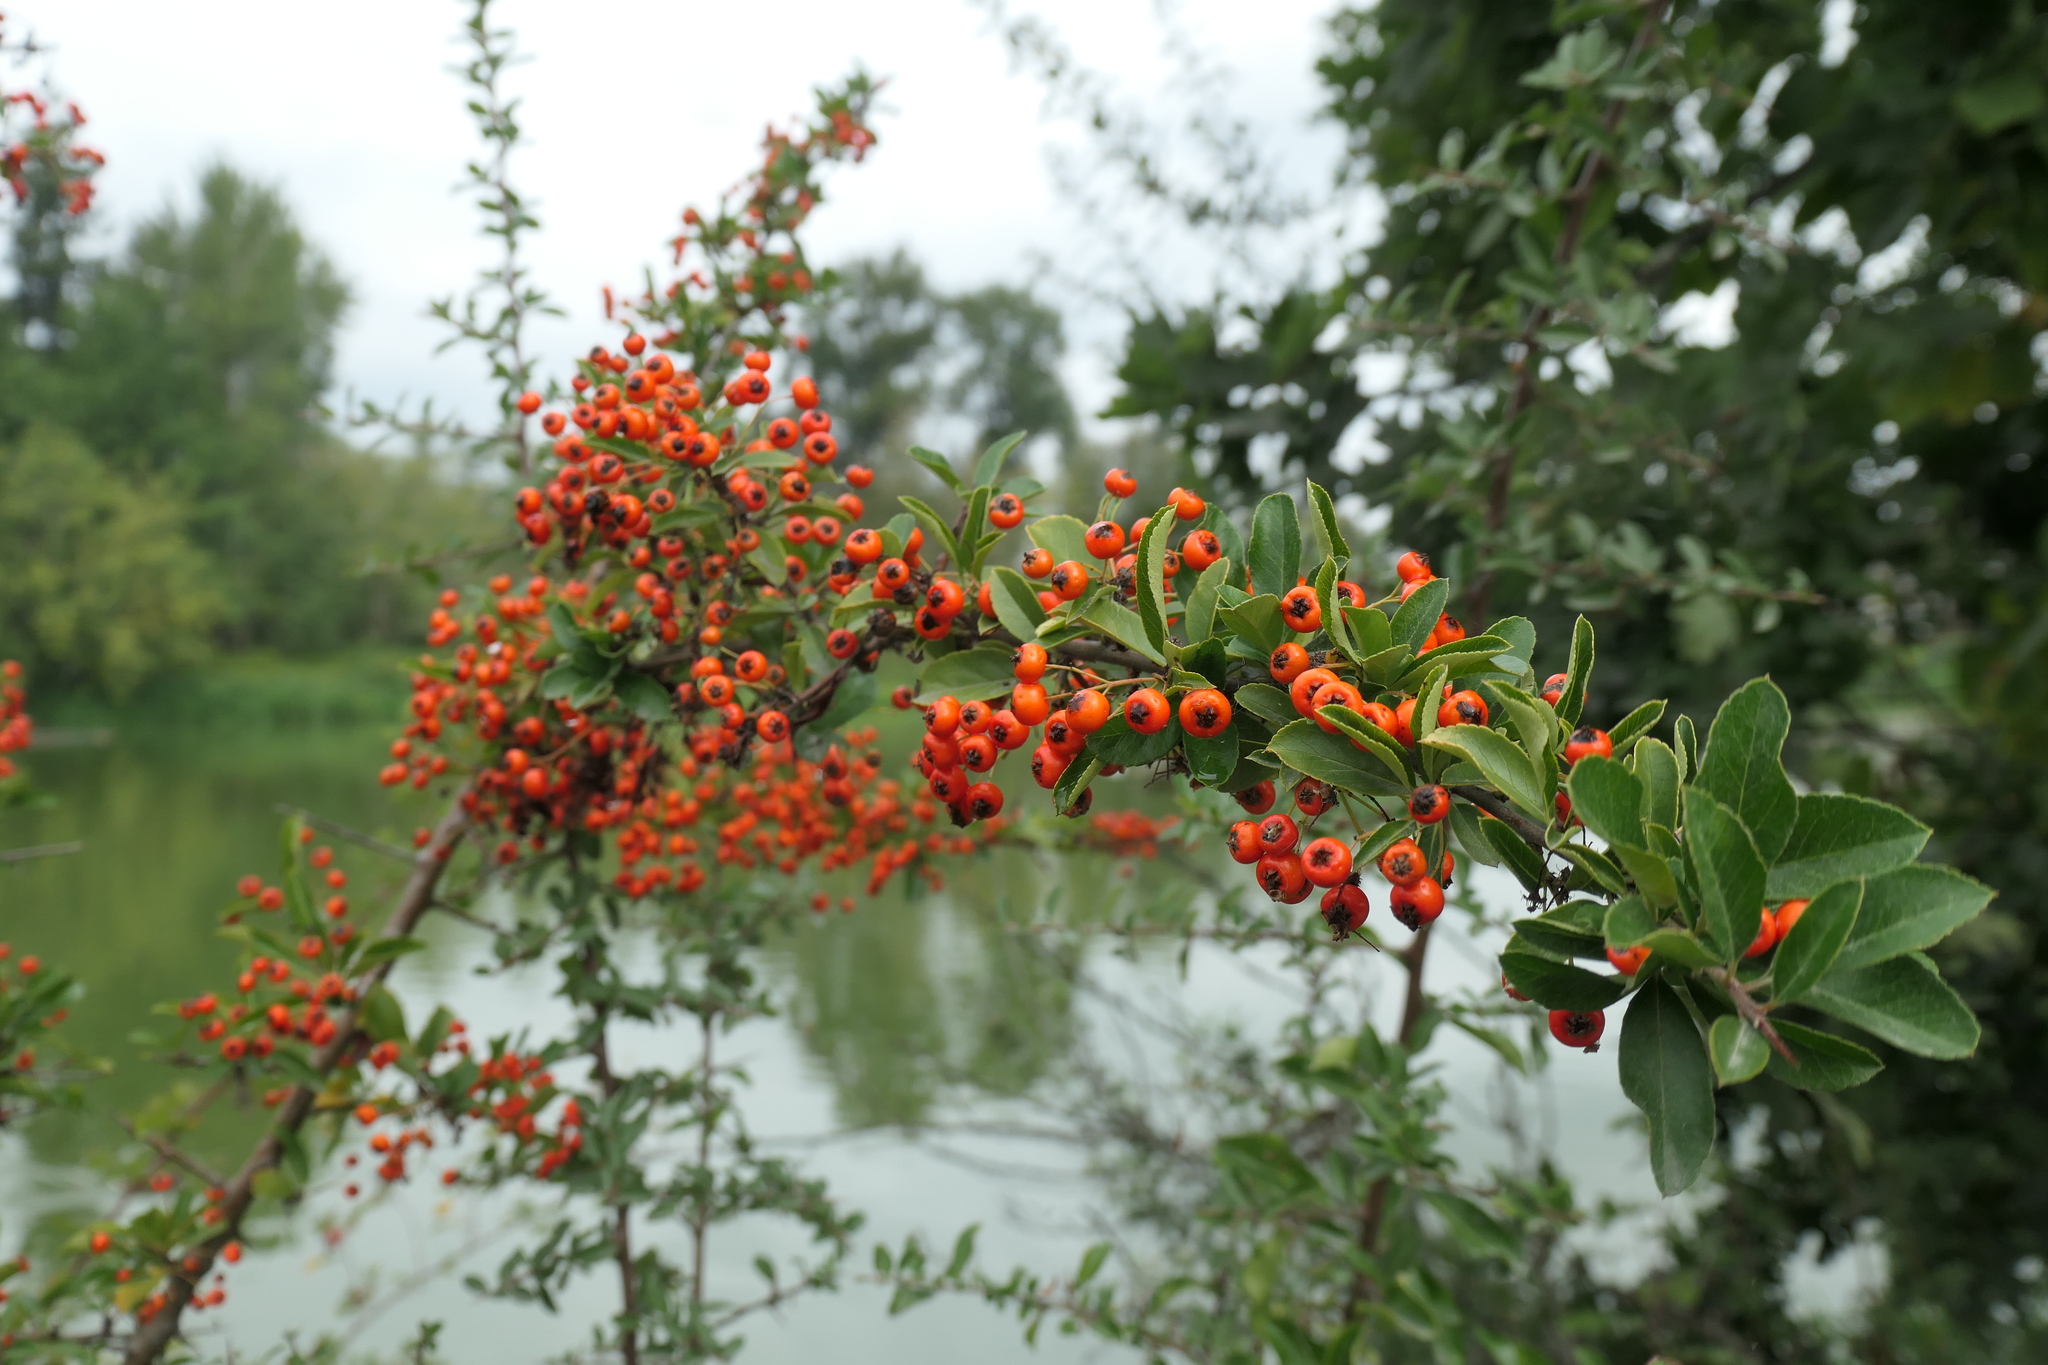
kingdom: Plantae
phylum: Tracheophyta
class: Magnoliopsida
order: Rosales
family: Rosaceae
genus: Pyracantha
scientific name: Pyracantha coccinea
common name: Firethorn
